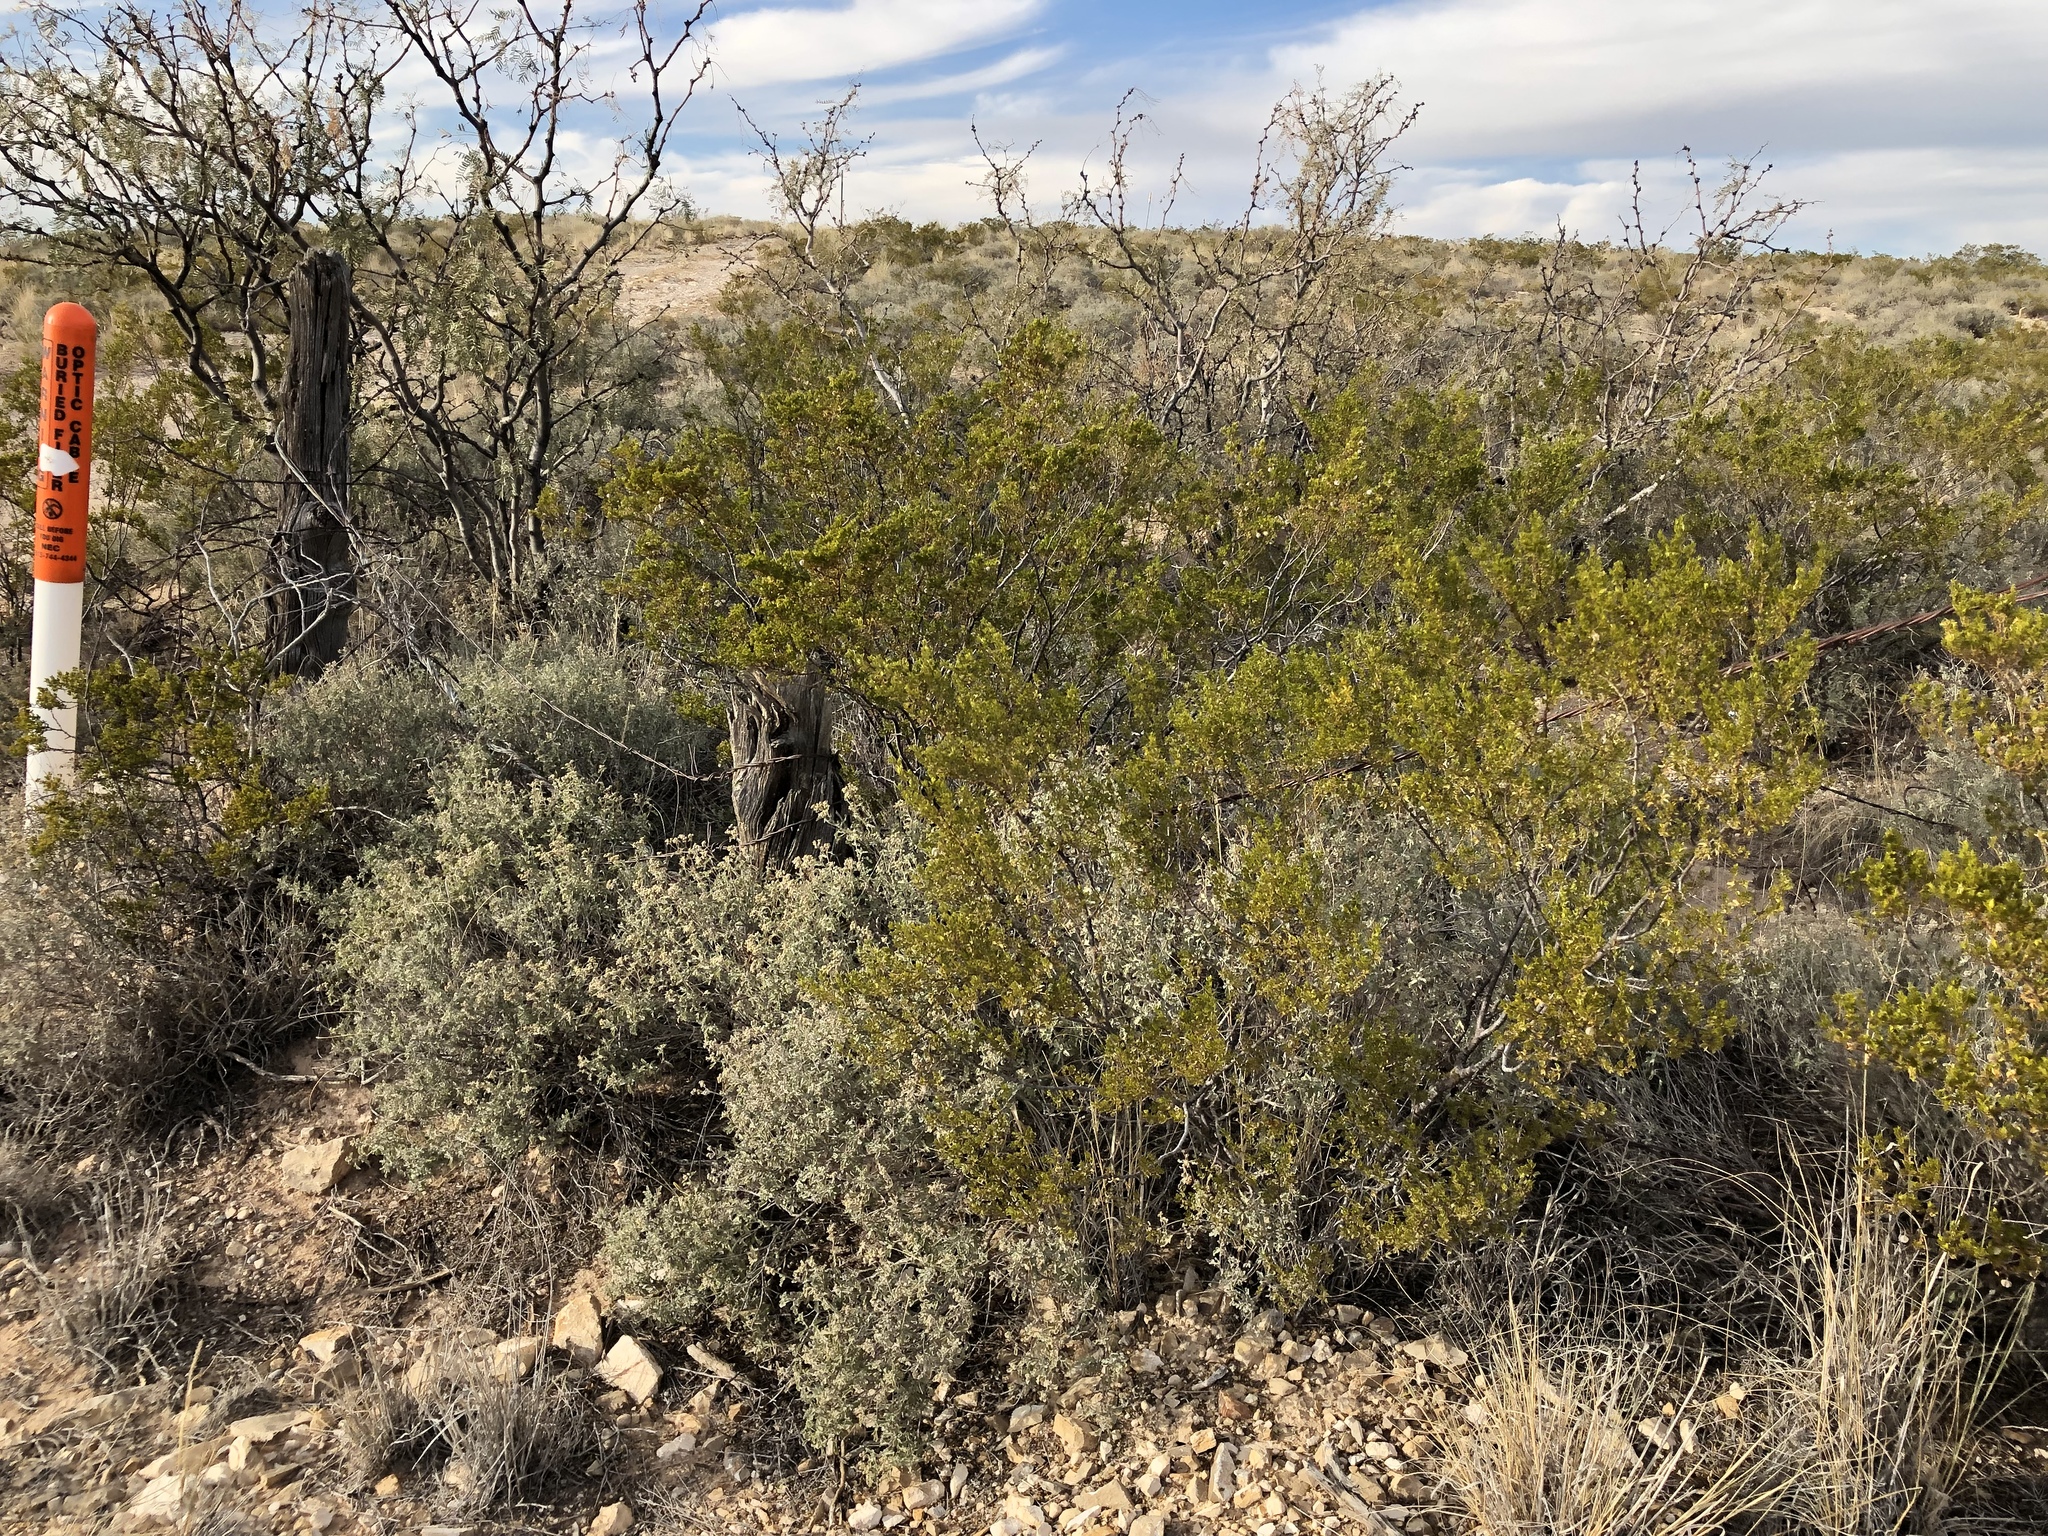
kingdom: Plantae
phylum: Tracheophyta
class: Magnoliopsida
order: Zygophyllales
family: Zygophyllaceae
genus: Larrea
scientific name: Larrea tridentata
